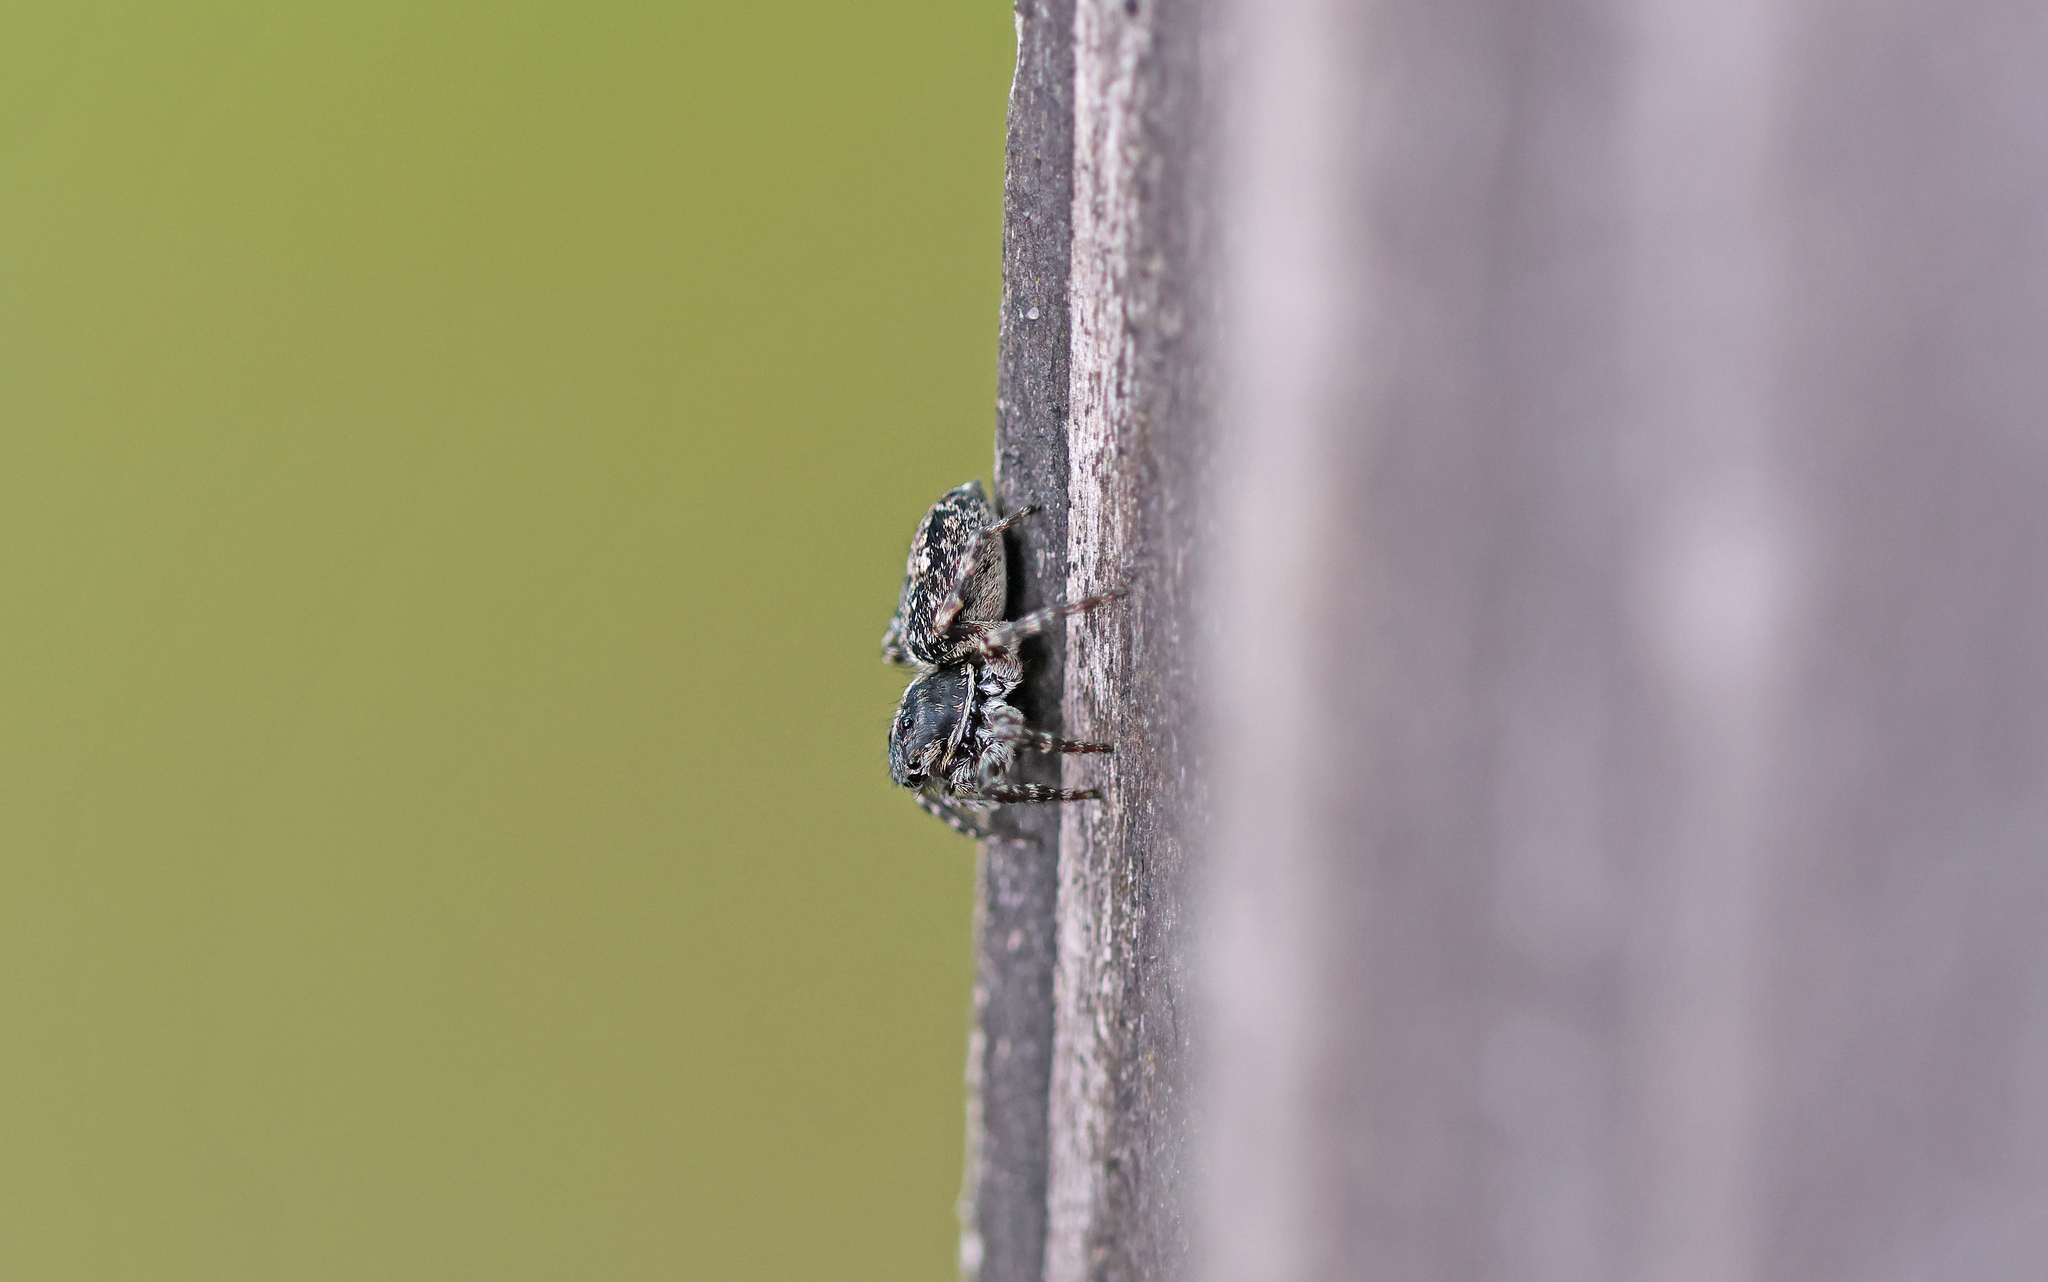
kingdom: Animalia
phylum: Arthropoda
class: Arachnida
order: Araneae
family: Salticidae
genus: Attulus
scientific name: Attulus terebratus
